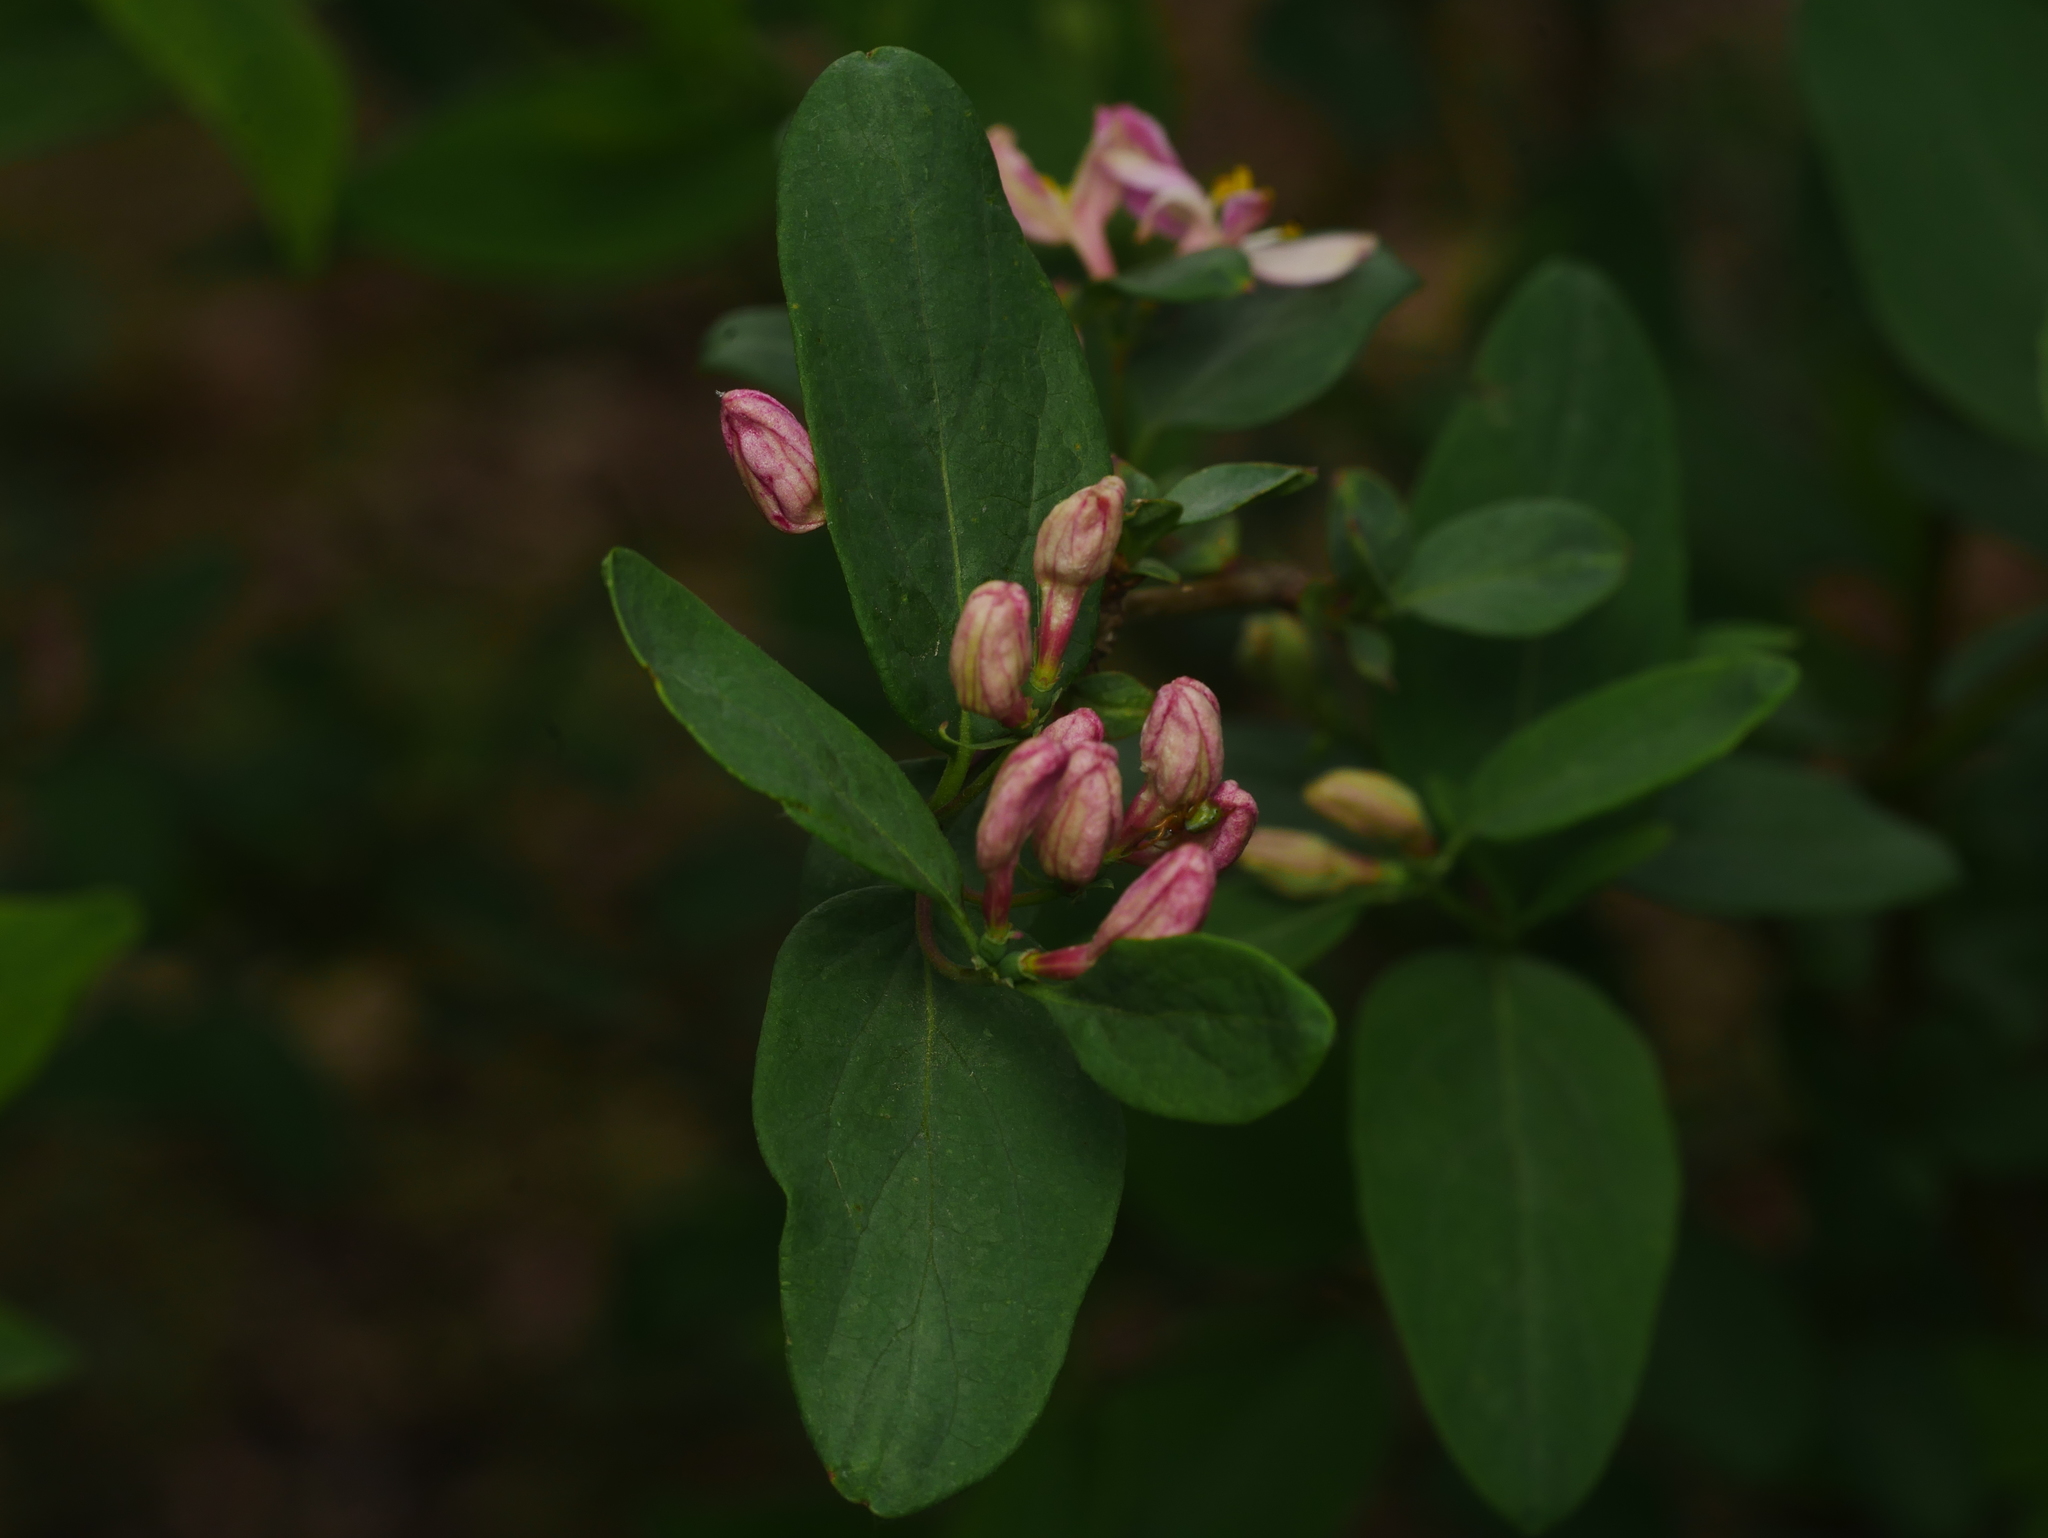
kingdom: Plantae
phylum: Tracheophyta
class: Magnoliopsida
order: Dipsacales
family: Caprifoliaceae
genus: Lonicera
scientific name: Lonicera tatarica
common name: Tatarian honeysuckle
